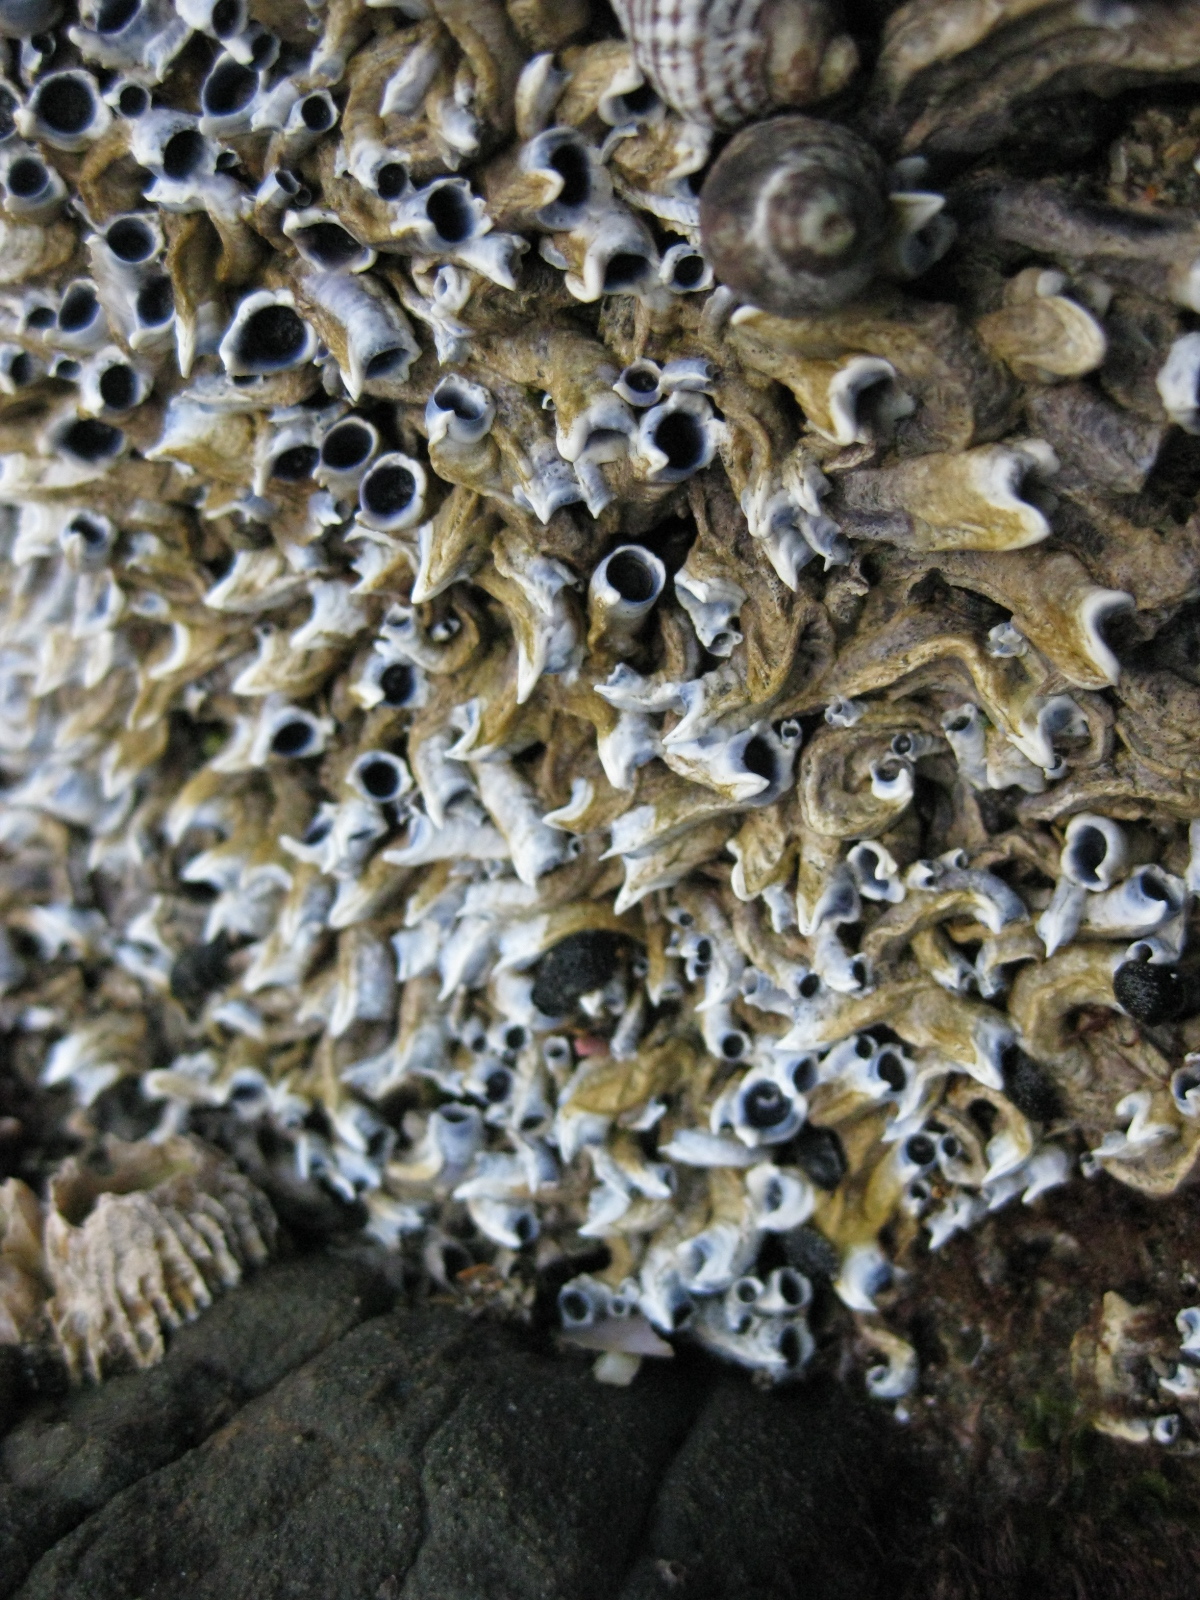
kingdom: Animalia
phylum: Annelida
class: Polychaeta
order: Sabellida
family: Serpulidae
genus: Spirobranchus
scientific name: Spirobranchus cariniferus
